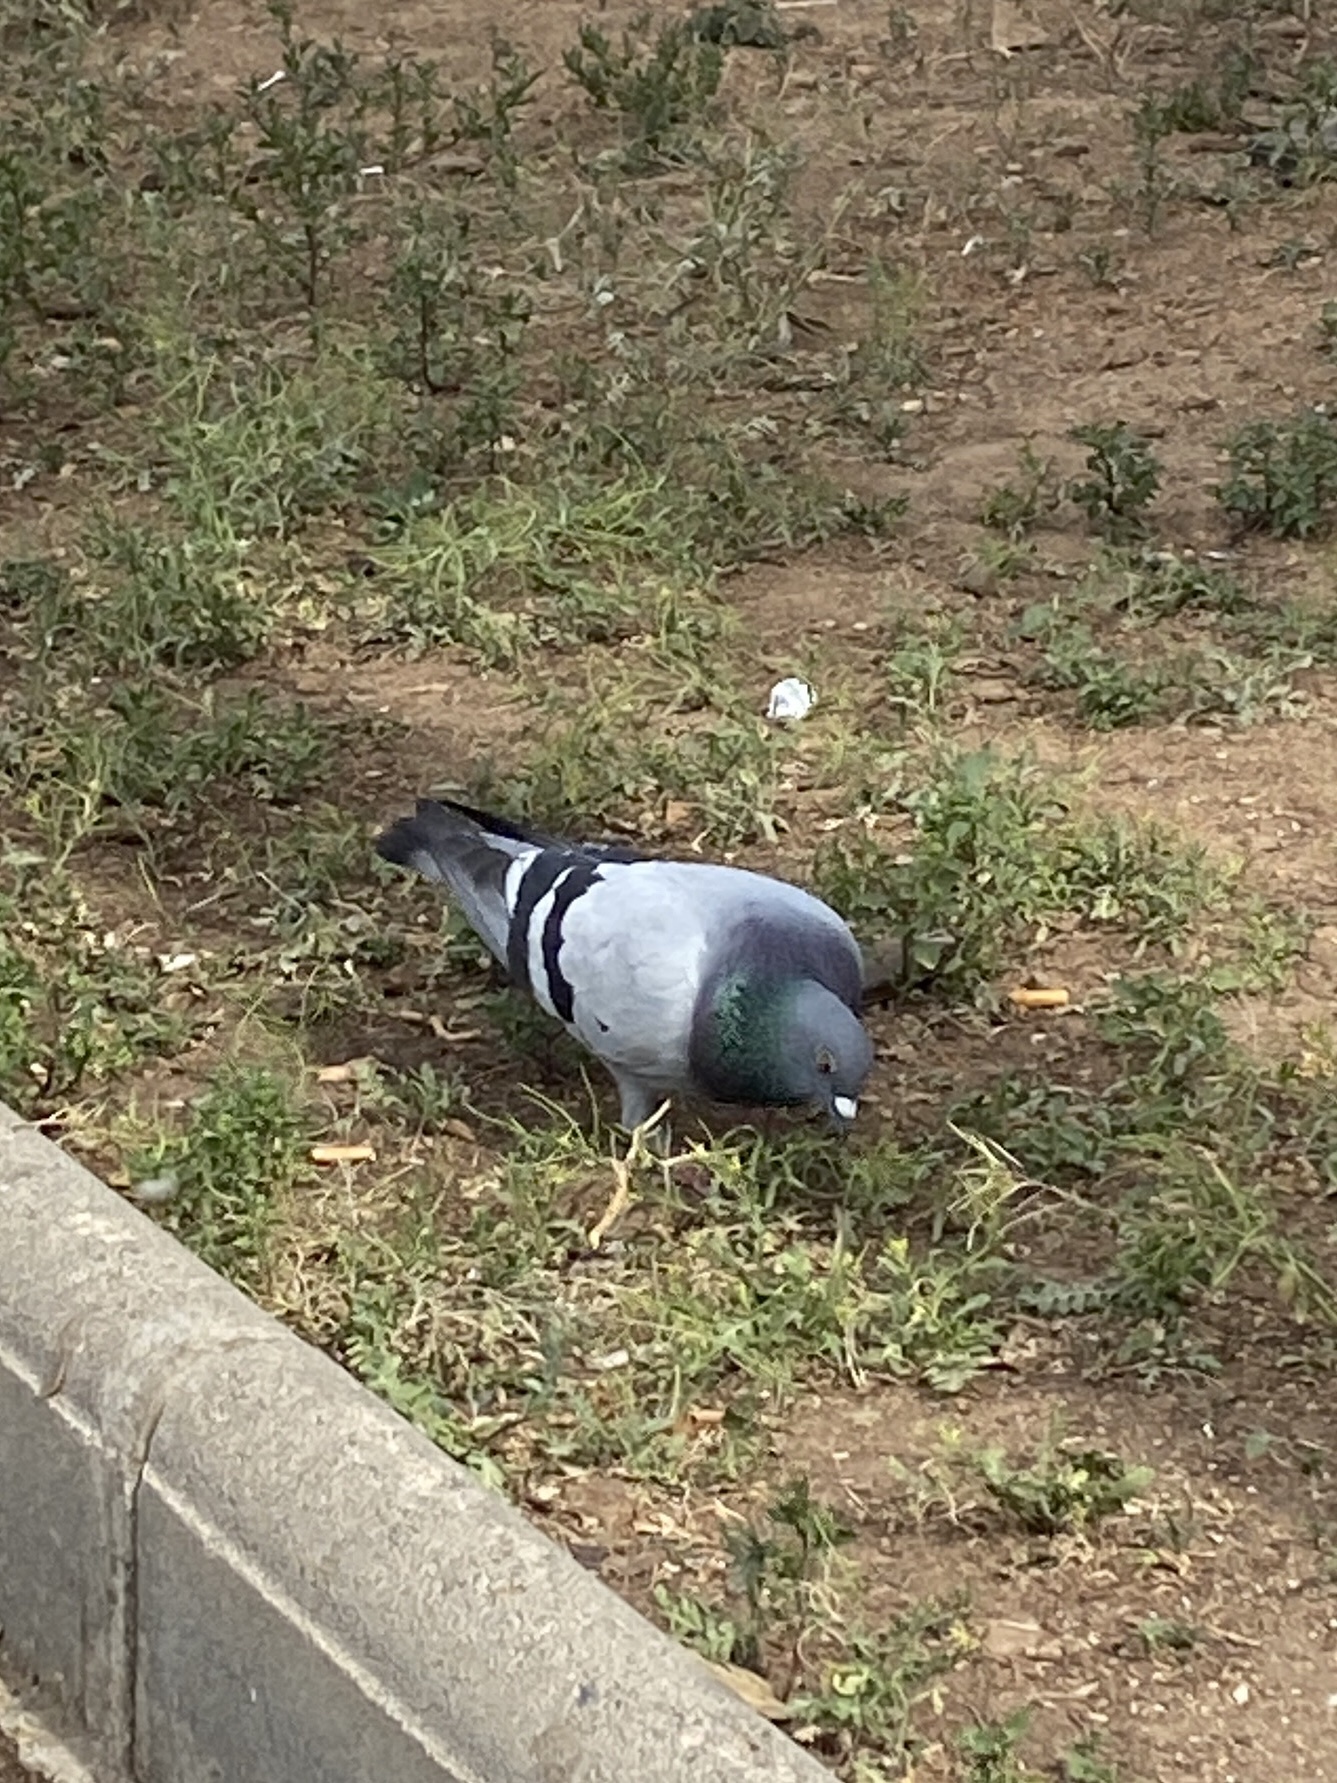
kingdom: Animalia
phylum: Chordata
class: Aves
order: Columbiformes
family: Columbidae
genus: Columba
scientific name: Columba livia
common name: Rock pigeon
